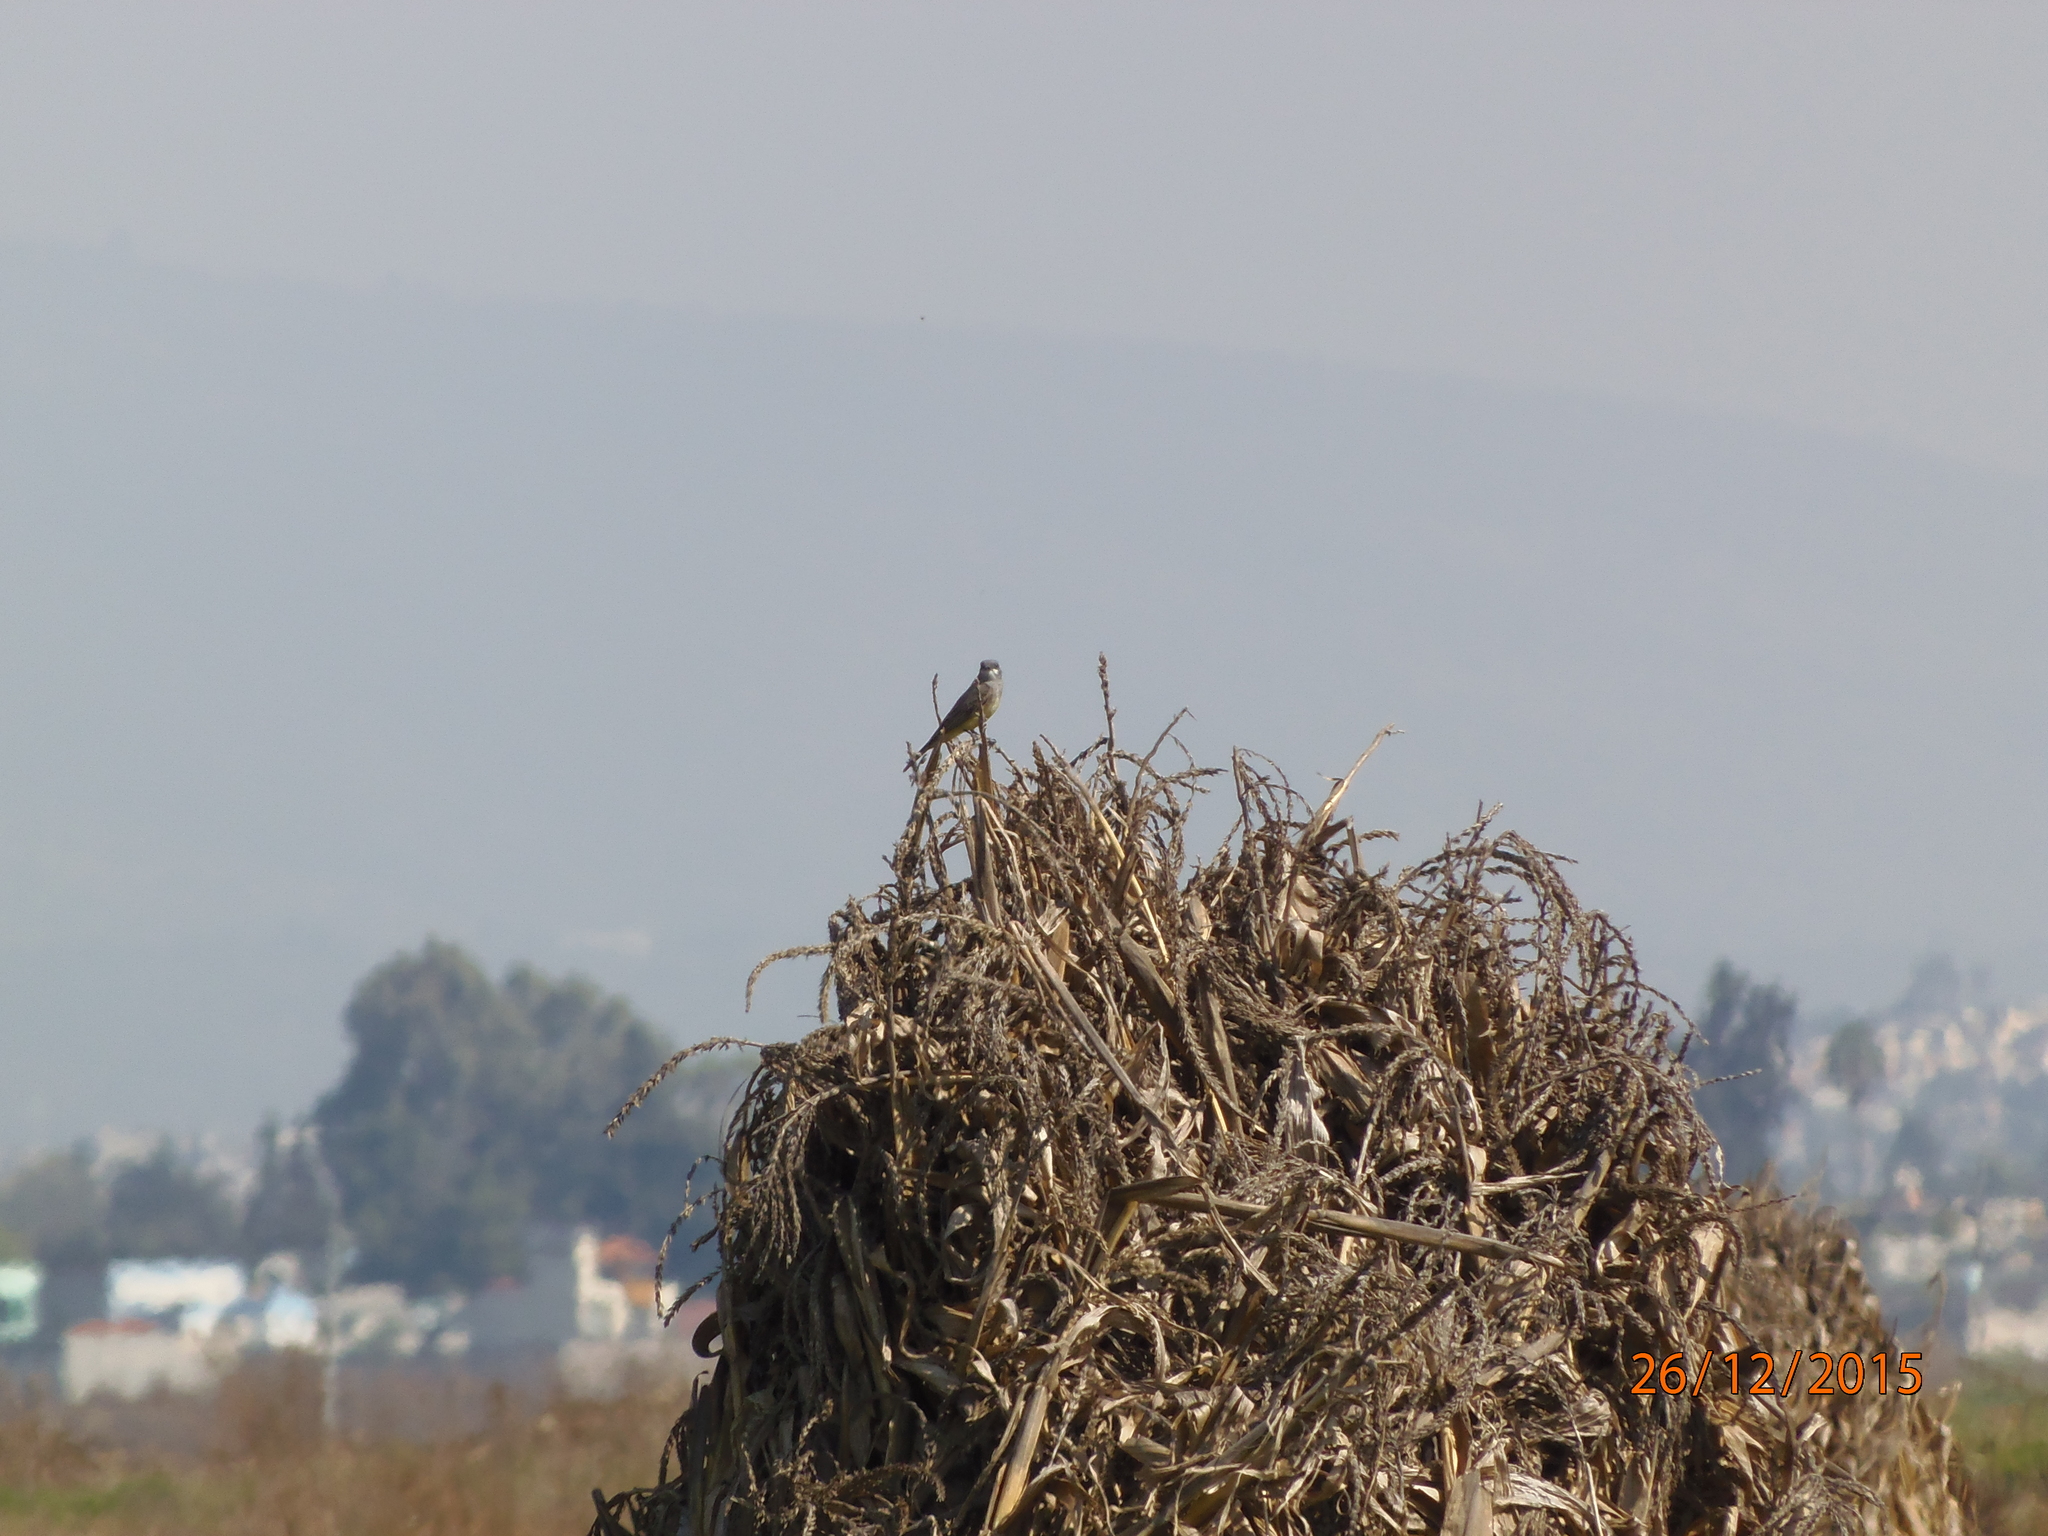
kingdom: Animalia
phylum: Chordata
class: Aves
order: Passeriformes
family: Tyrannidae
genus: Tyrannus
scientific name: Tyrannus vociferans
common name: Cassin's kingbird
